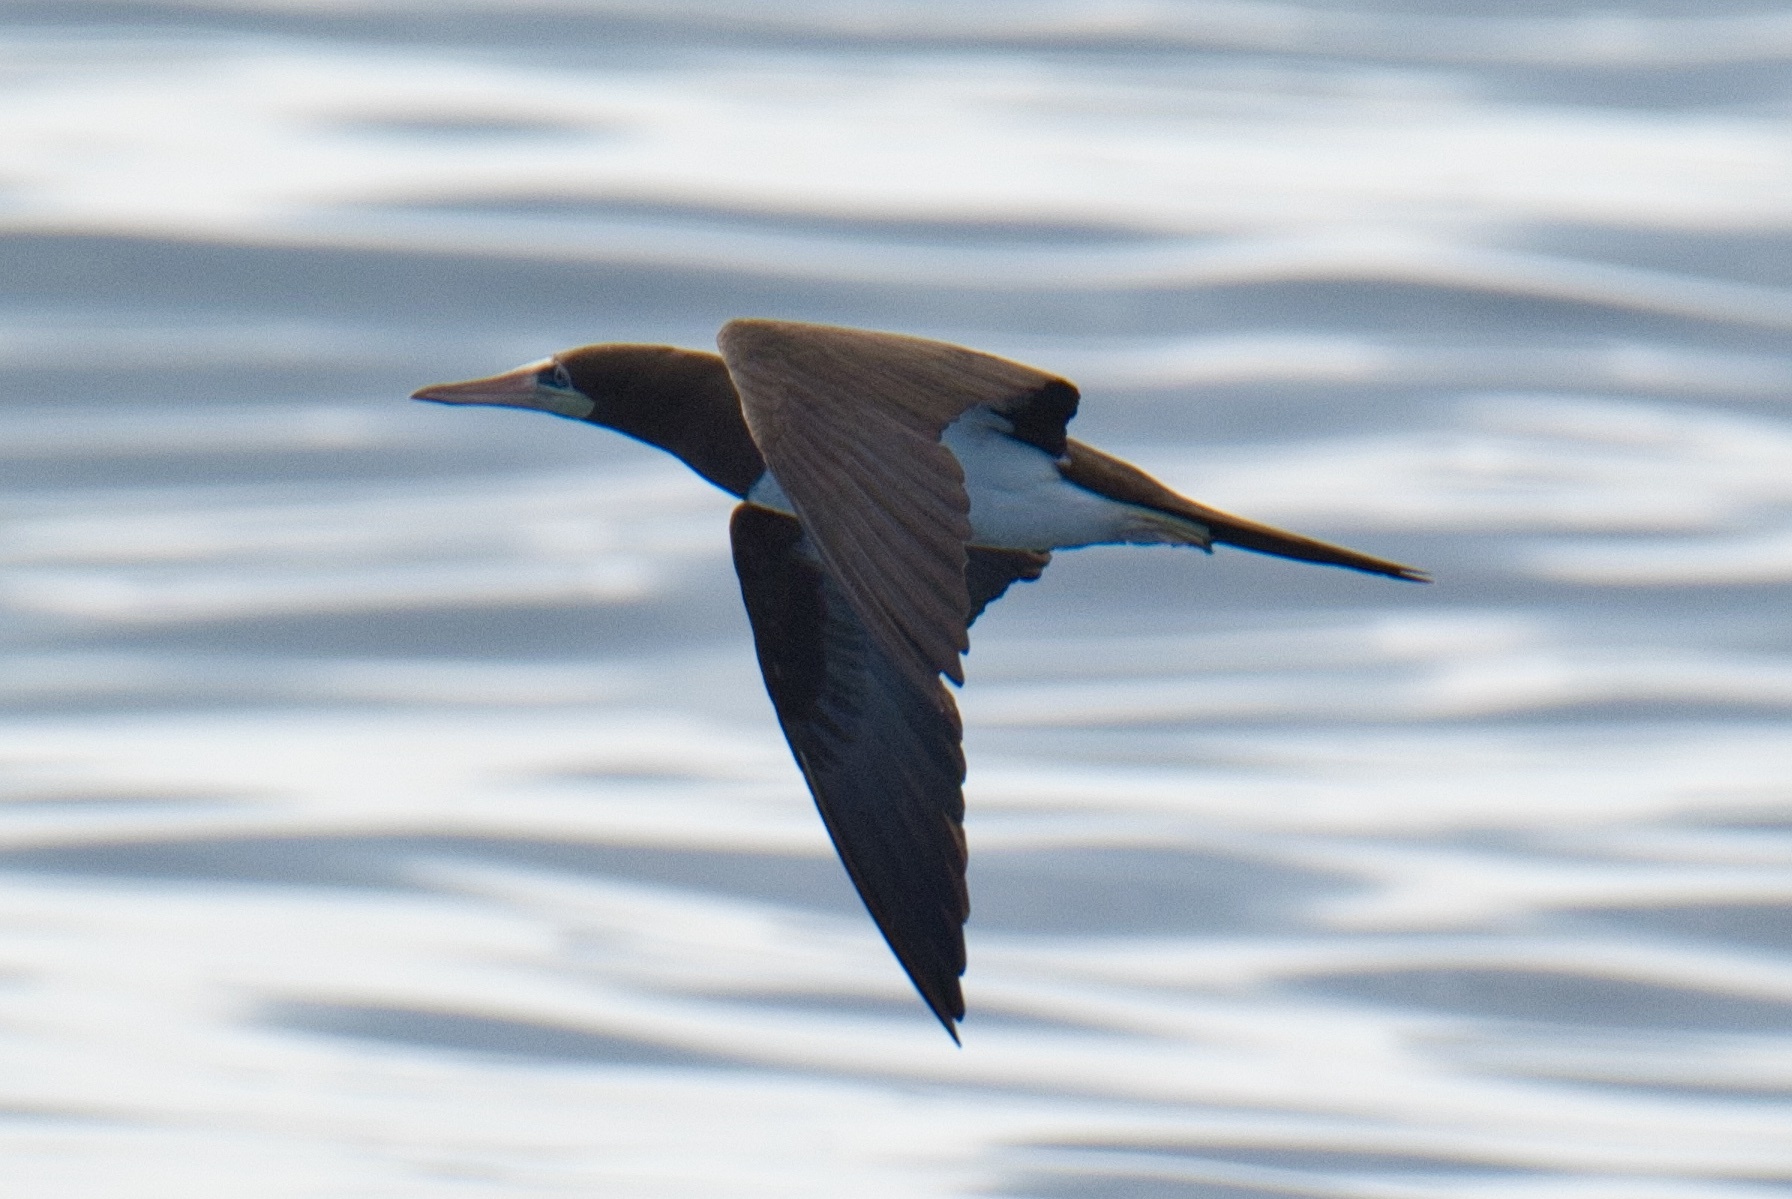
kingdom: Animalia
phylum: Chordata
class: Aves
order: Suliformes
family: Sulidae
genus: Sula
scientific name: Sula leucogaster
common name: Brown booby
